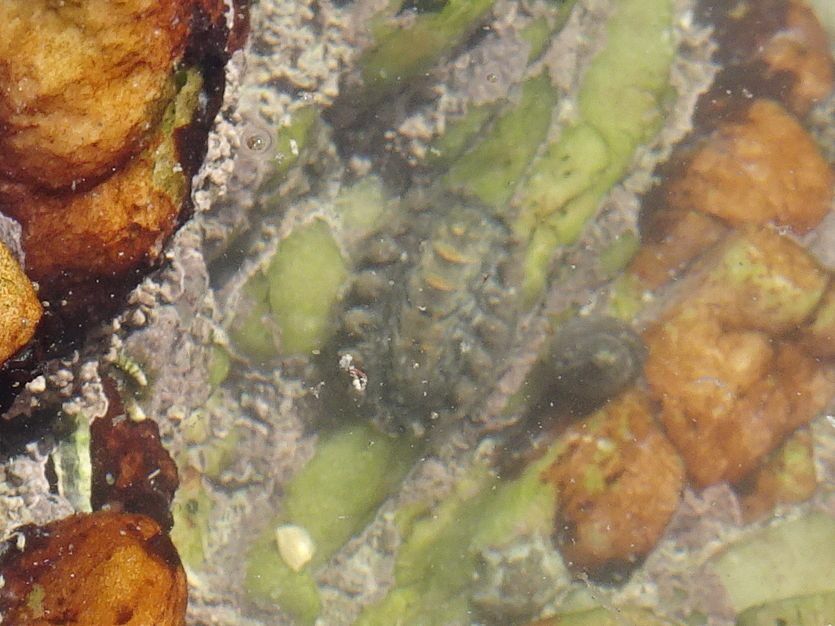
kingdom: Animalia
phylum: Mollusca
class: Polyplacophora
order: Chitonida
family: Acanthochitonidae
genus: Acanthochitona
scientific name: Acanthochitona garnoti
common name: Spiny chiton
